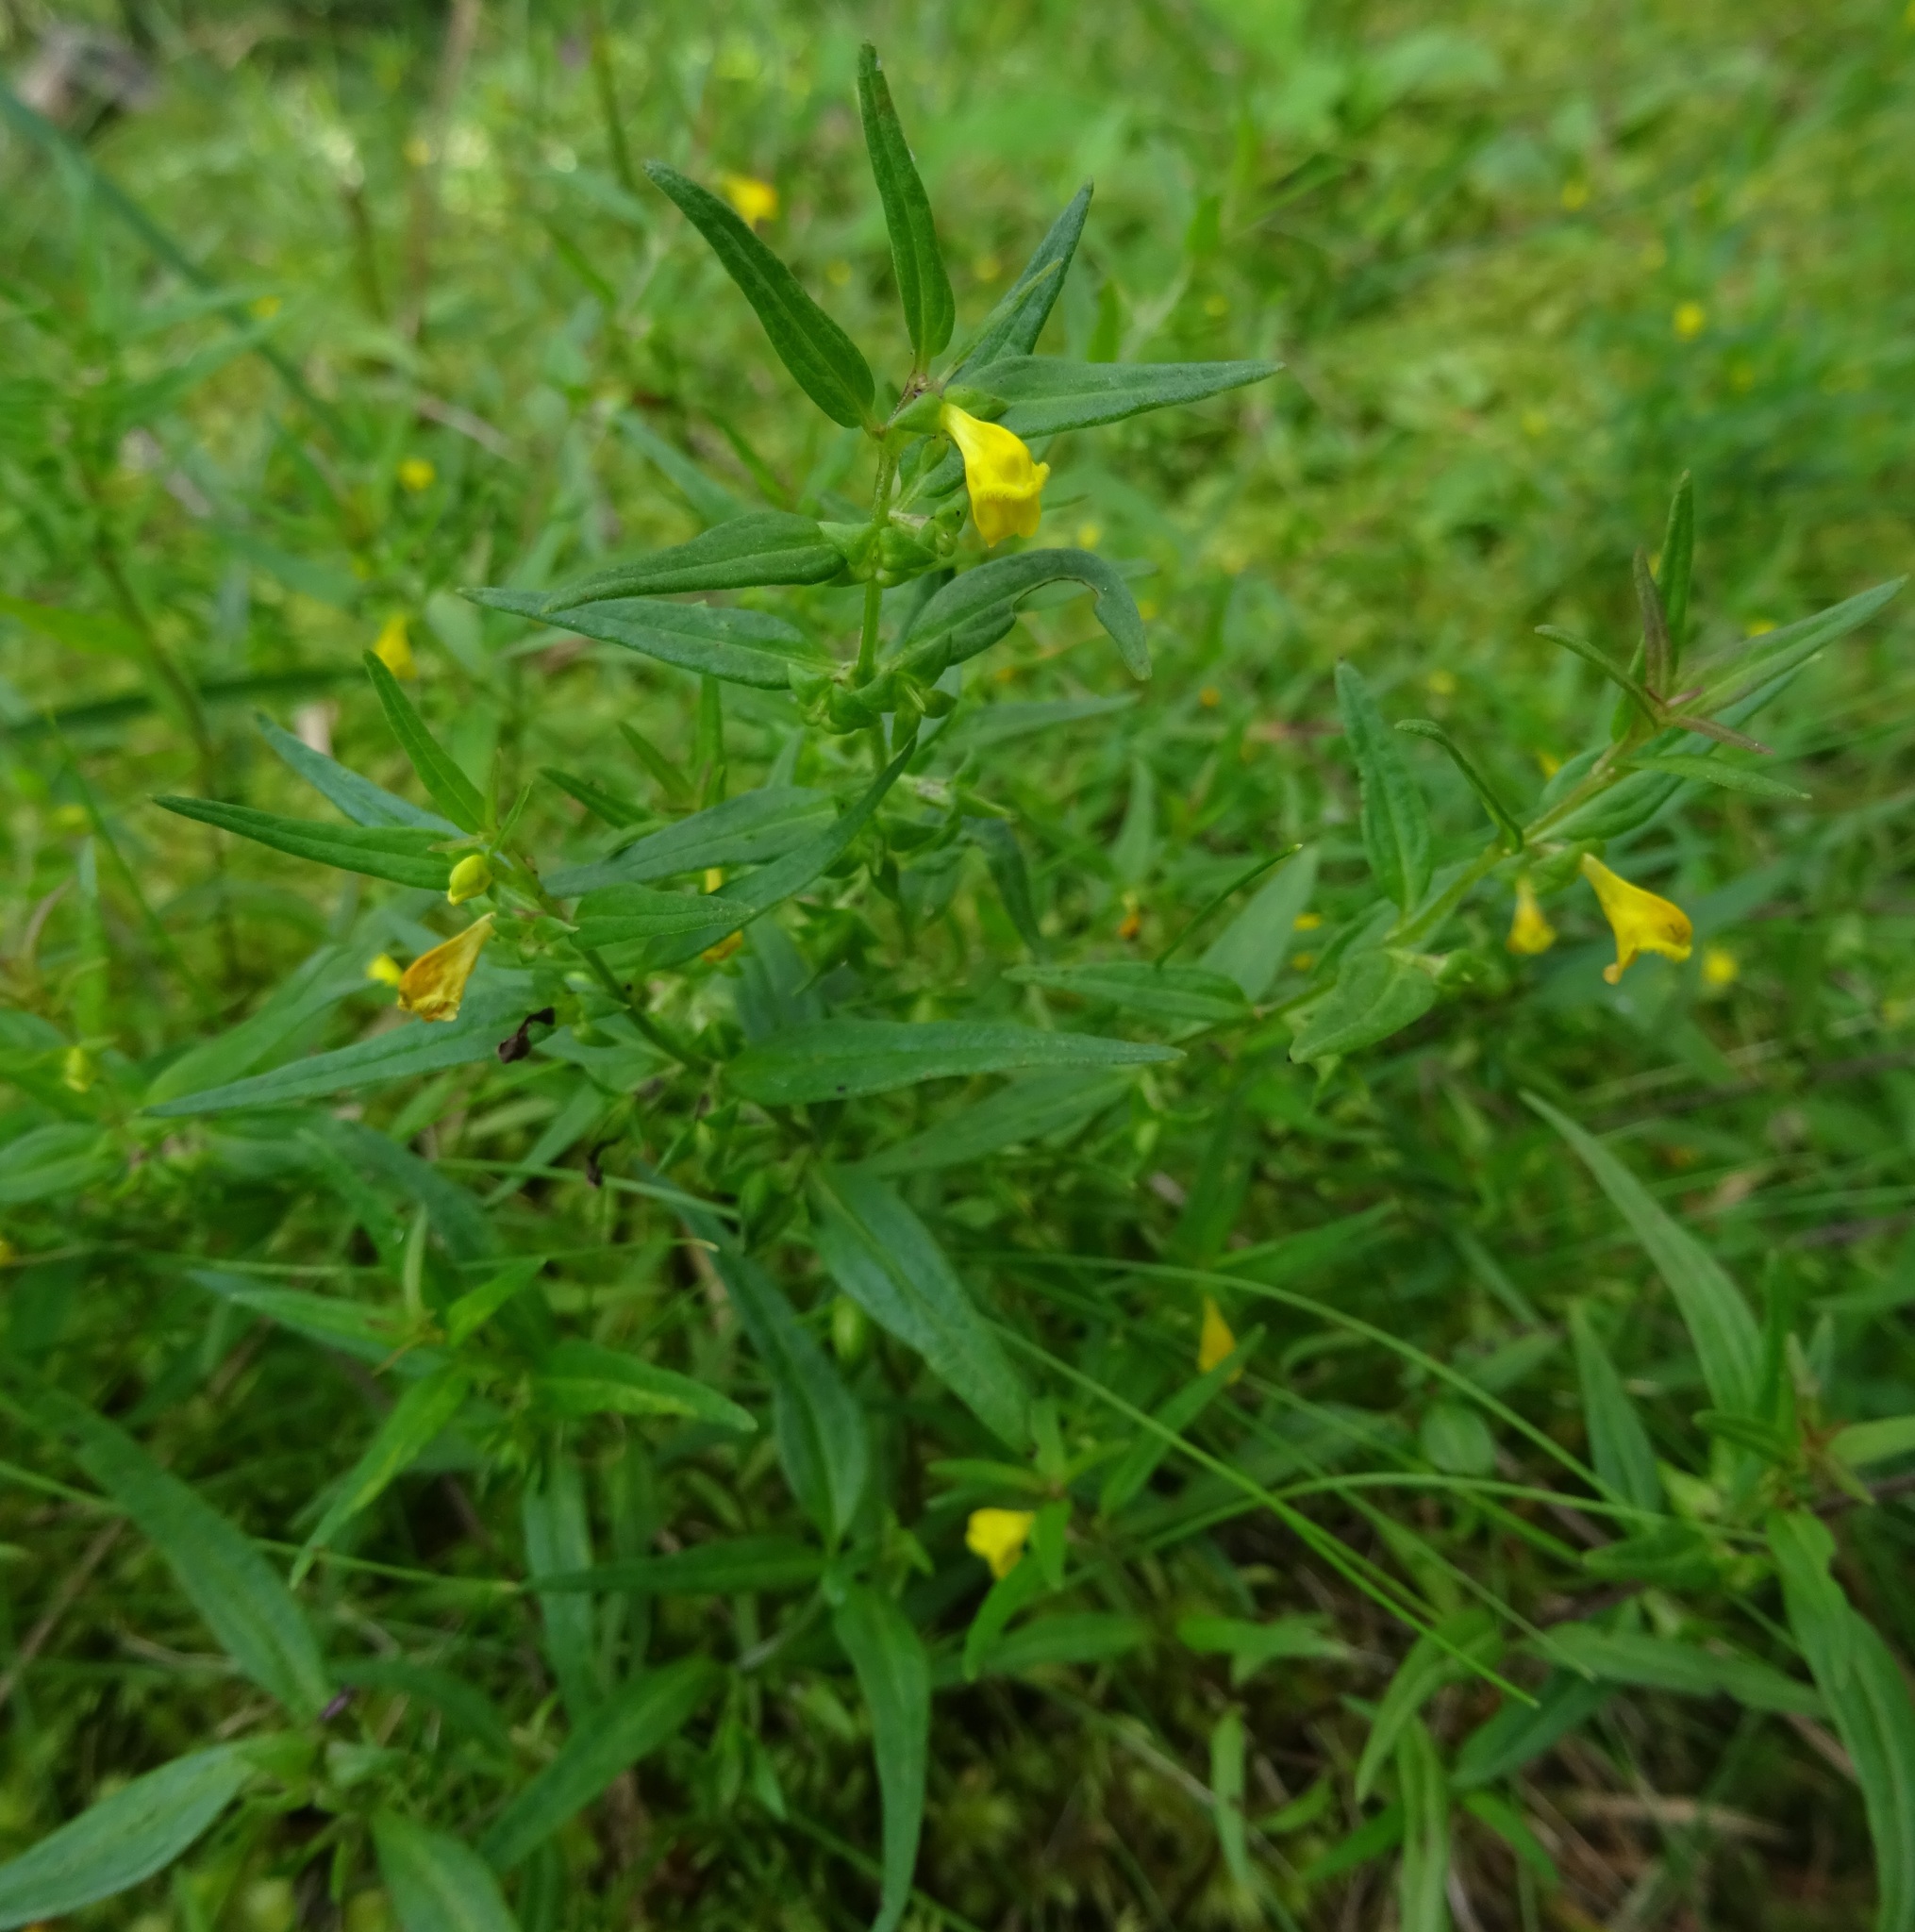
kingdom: Plantae
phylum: Tracheophyta
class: Magnoliopsida
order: Lamiales
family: Orobanchaceae
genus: Melampyrum
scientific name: Melampyrum sylvaticum
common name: Small cow-wheat
